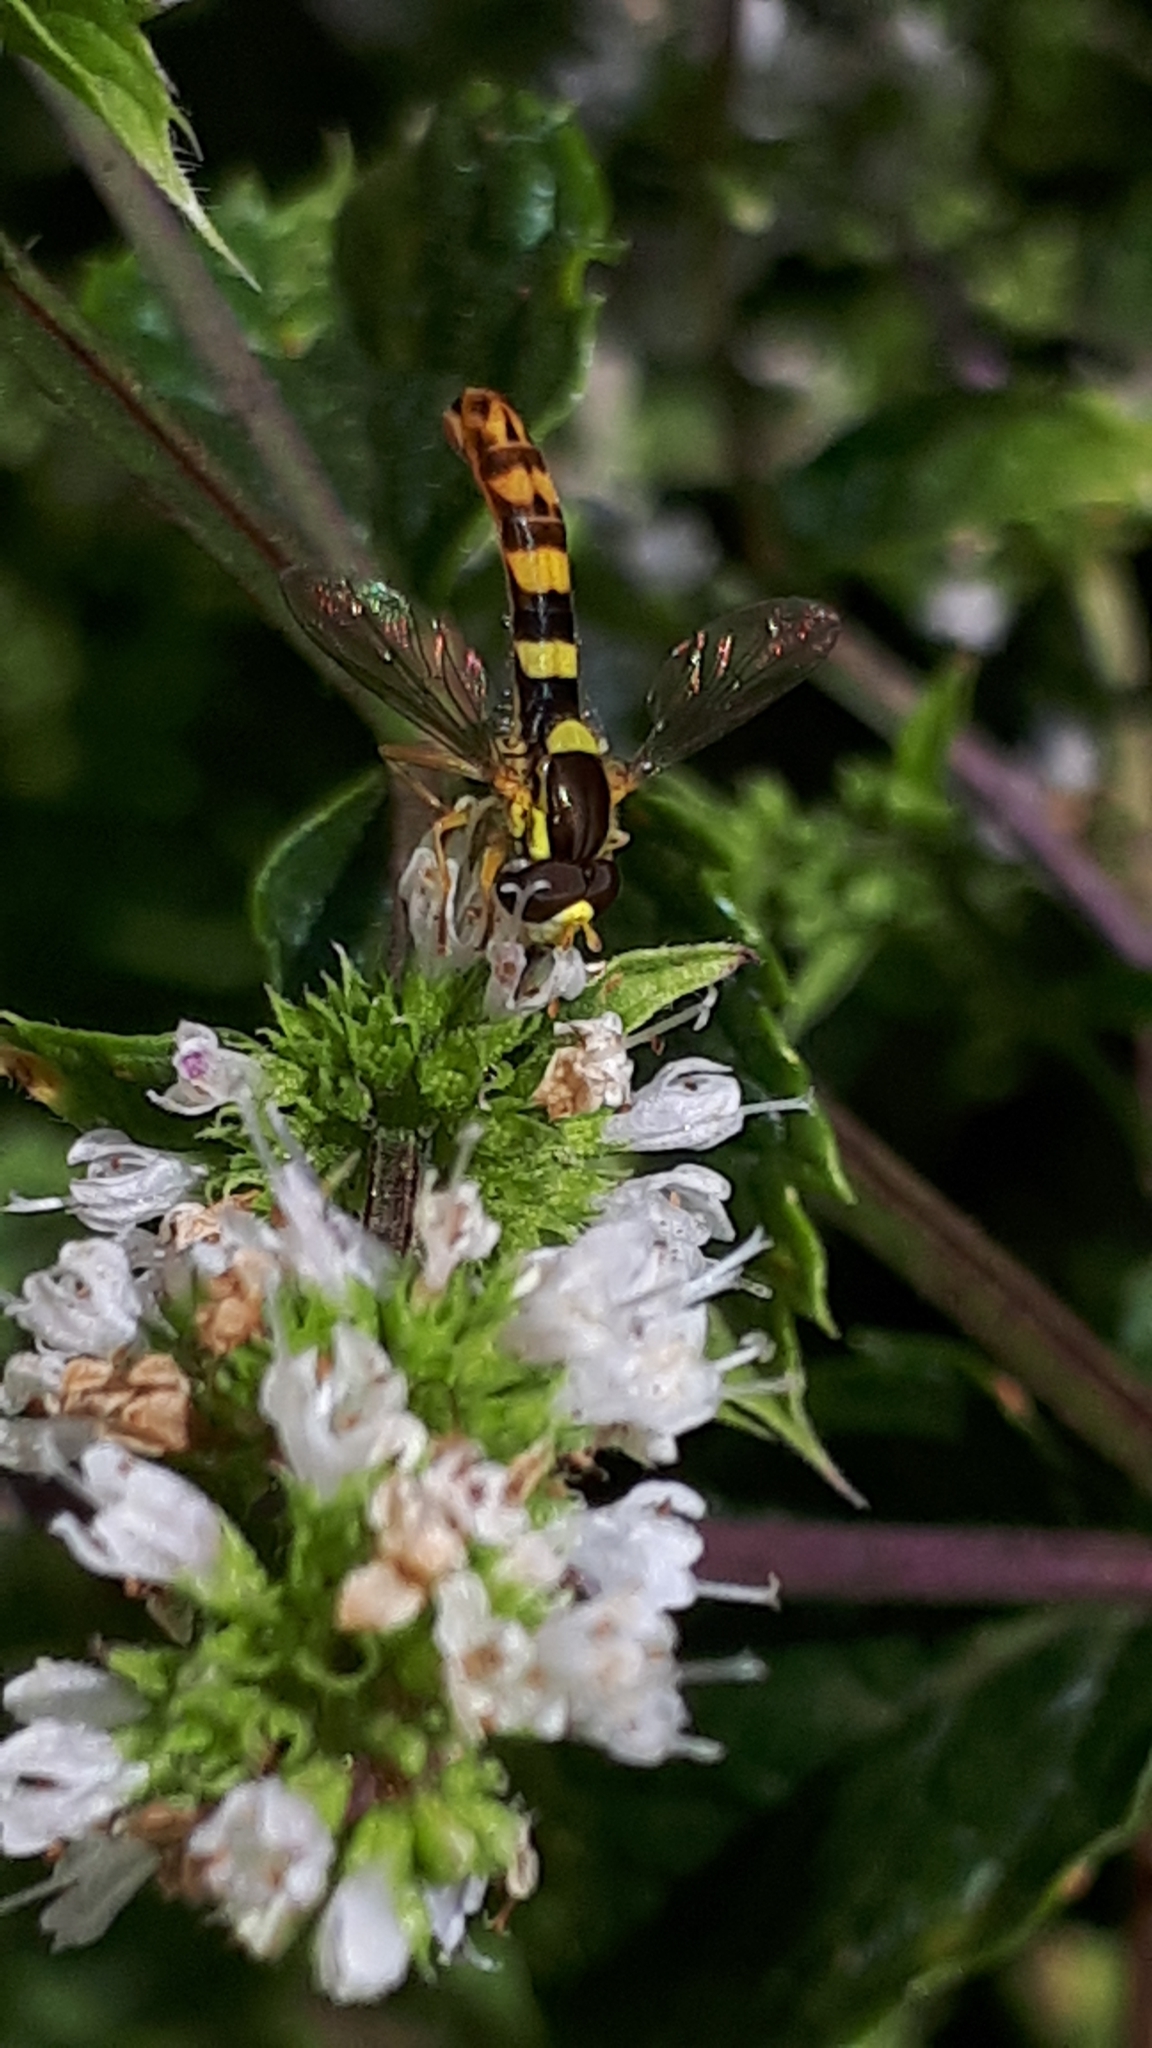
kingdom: Animalia
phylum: Arthropoda
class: Insecta
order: Diptera
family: Syrphidae
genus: Sphaerophoria
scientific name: Sphaerophoria scripta
